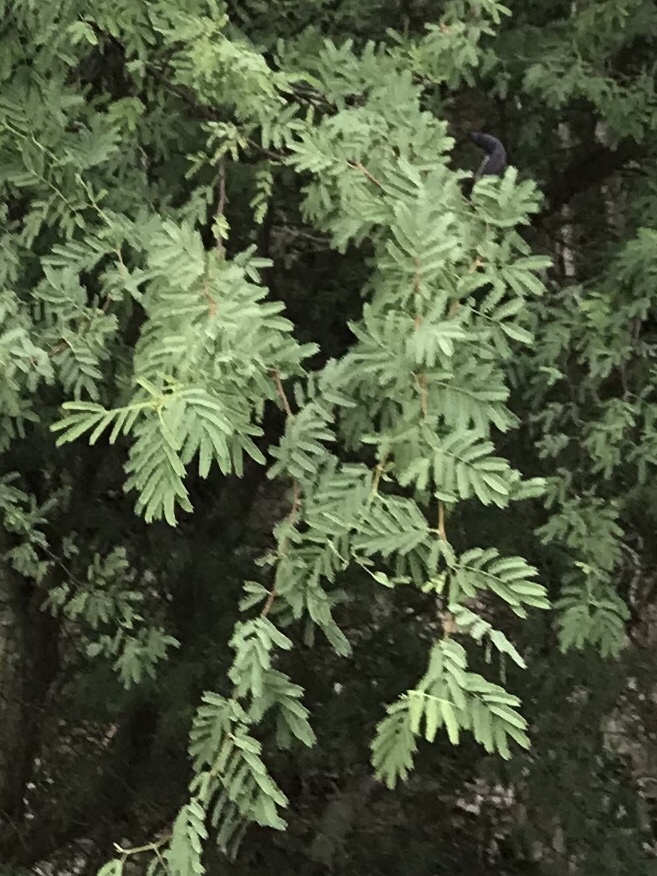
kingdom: Plantae
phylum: Tracheophyta
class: Magnoliopsida
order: Fabales
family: Fabaceae
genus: Vachellia
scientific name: Vachellia farnesiana
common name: Sweet acacia
